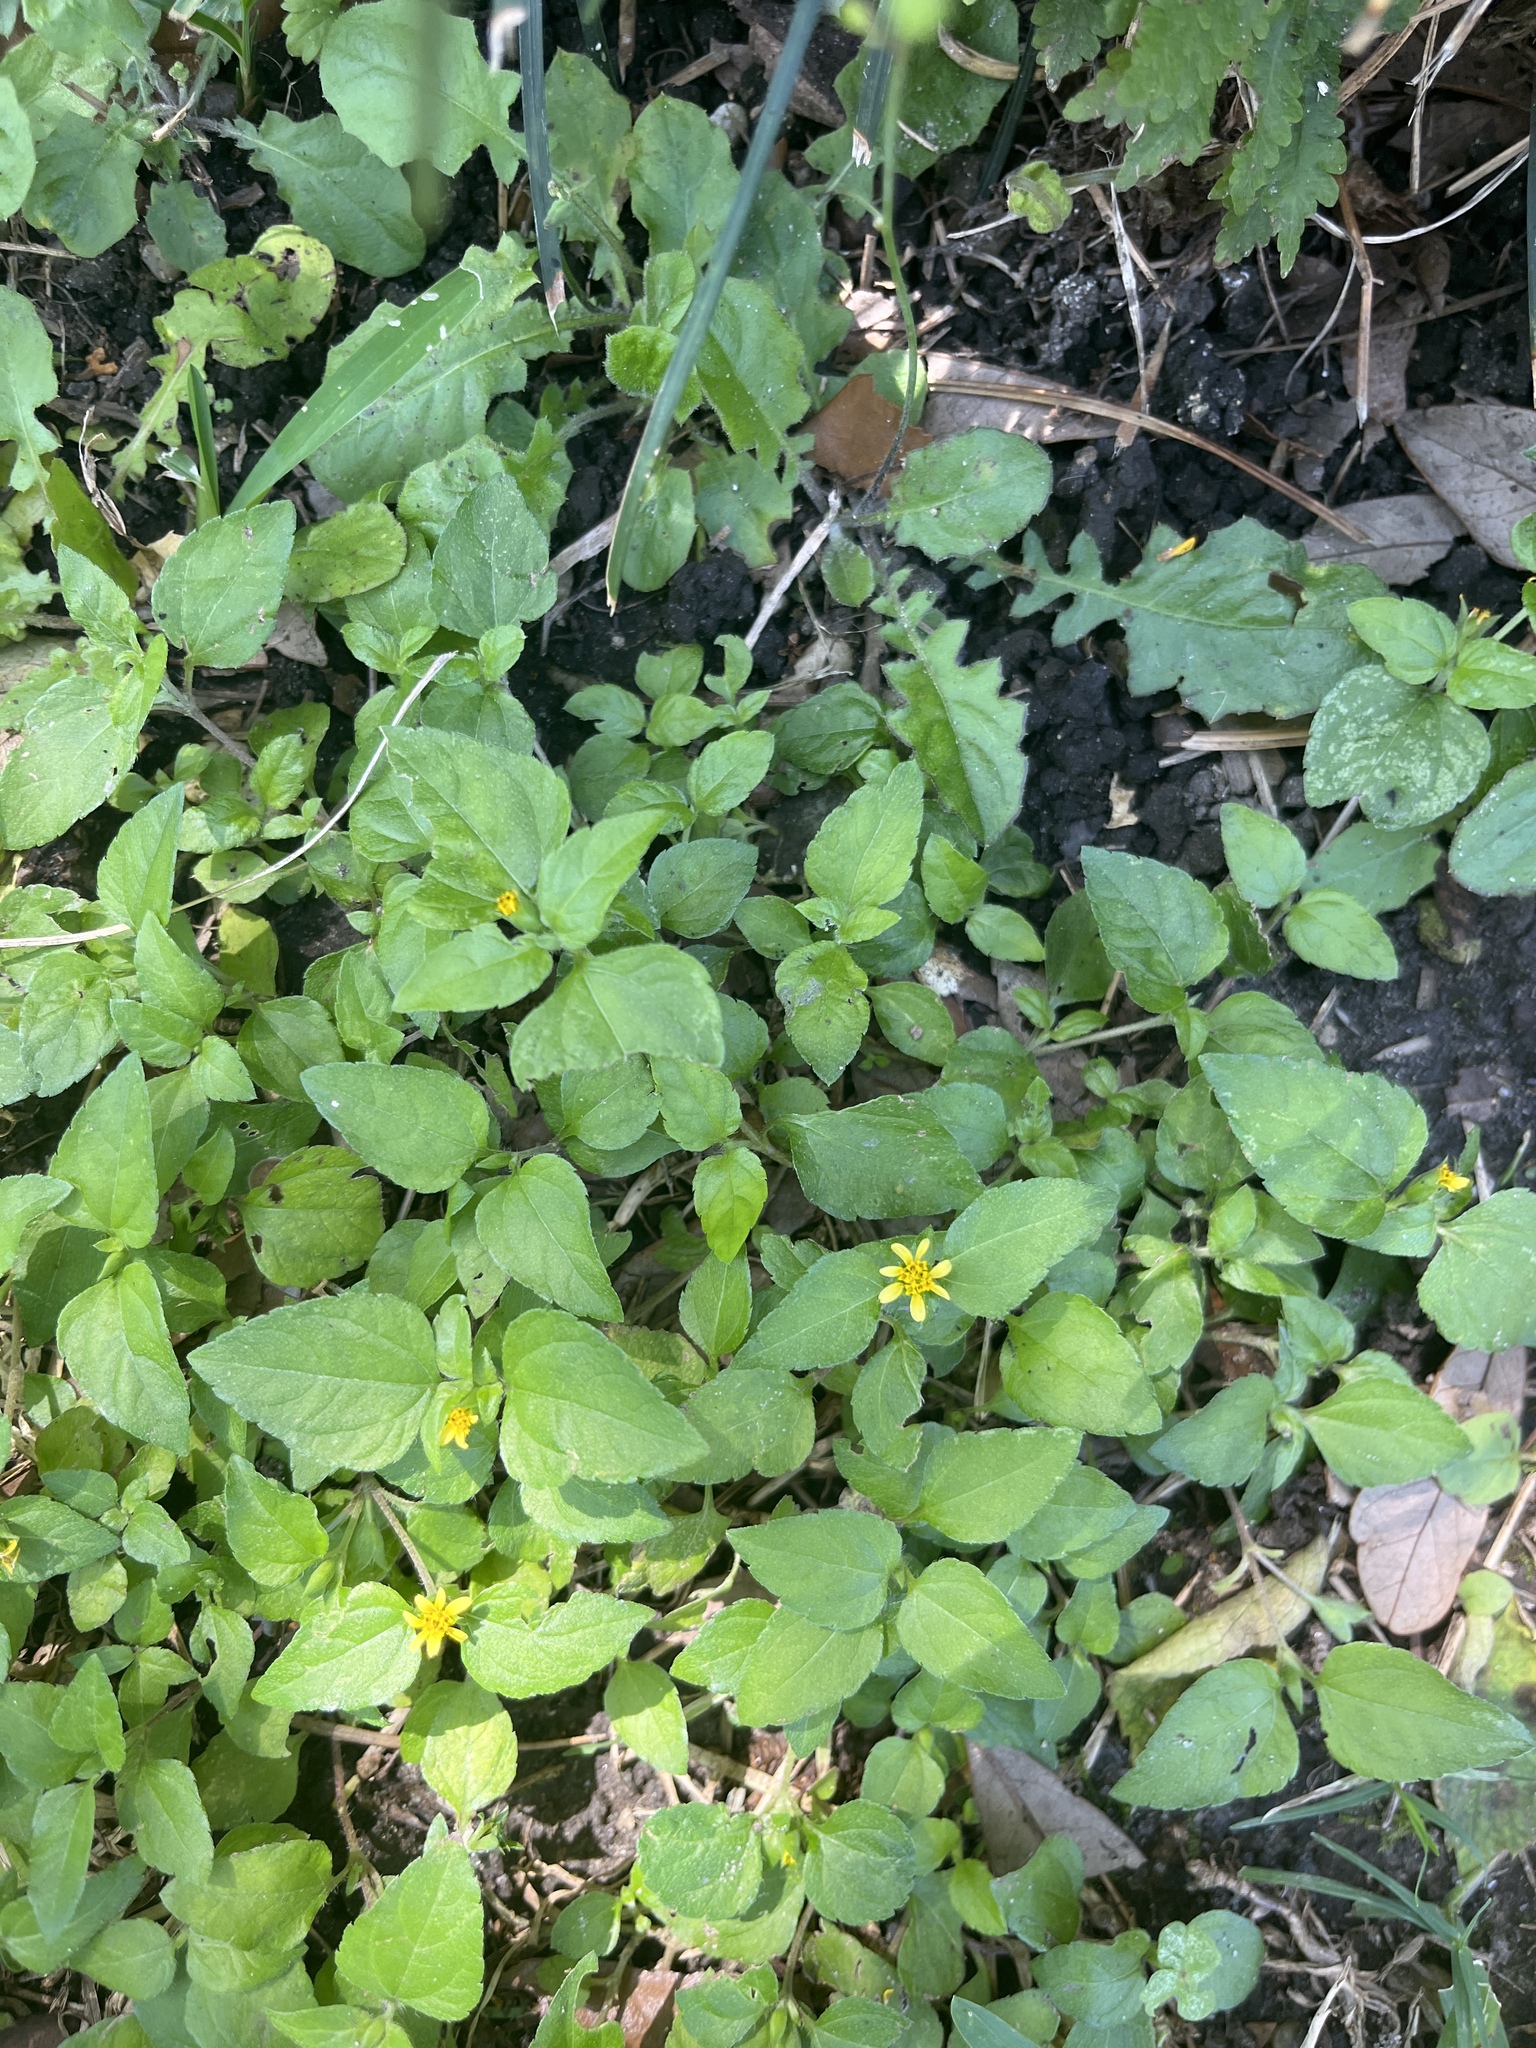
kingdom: Plantae
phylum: Tracheophyta
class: Magnoliopsida
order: Asterales
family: Asteraceae
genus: Calyptocarpus
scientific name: Calyptocarpus vialis
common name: Straggler daisy
